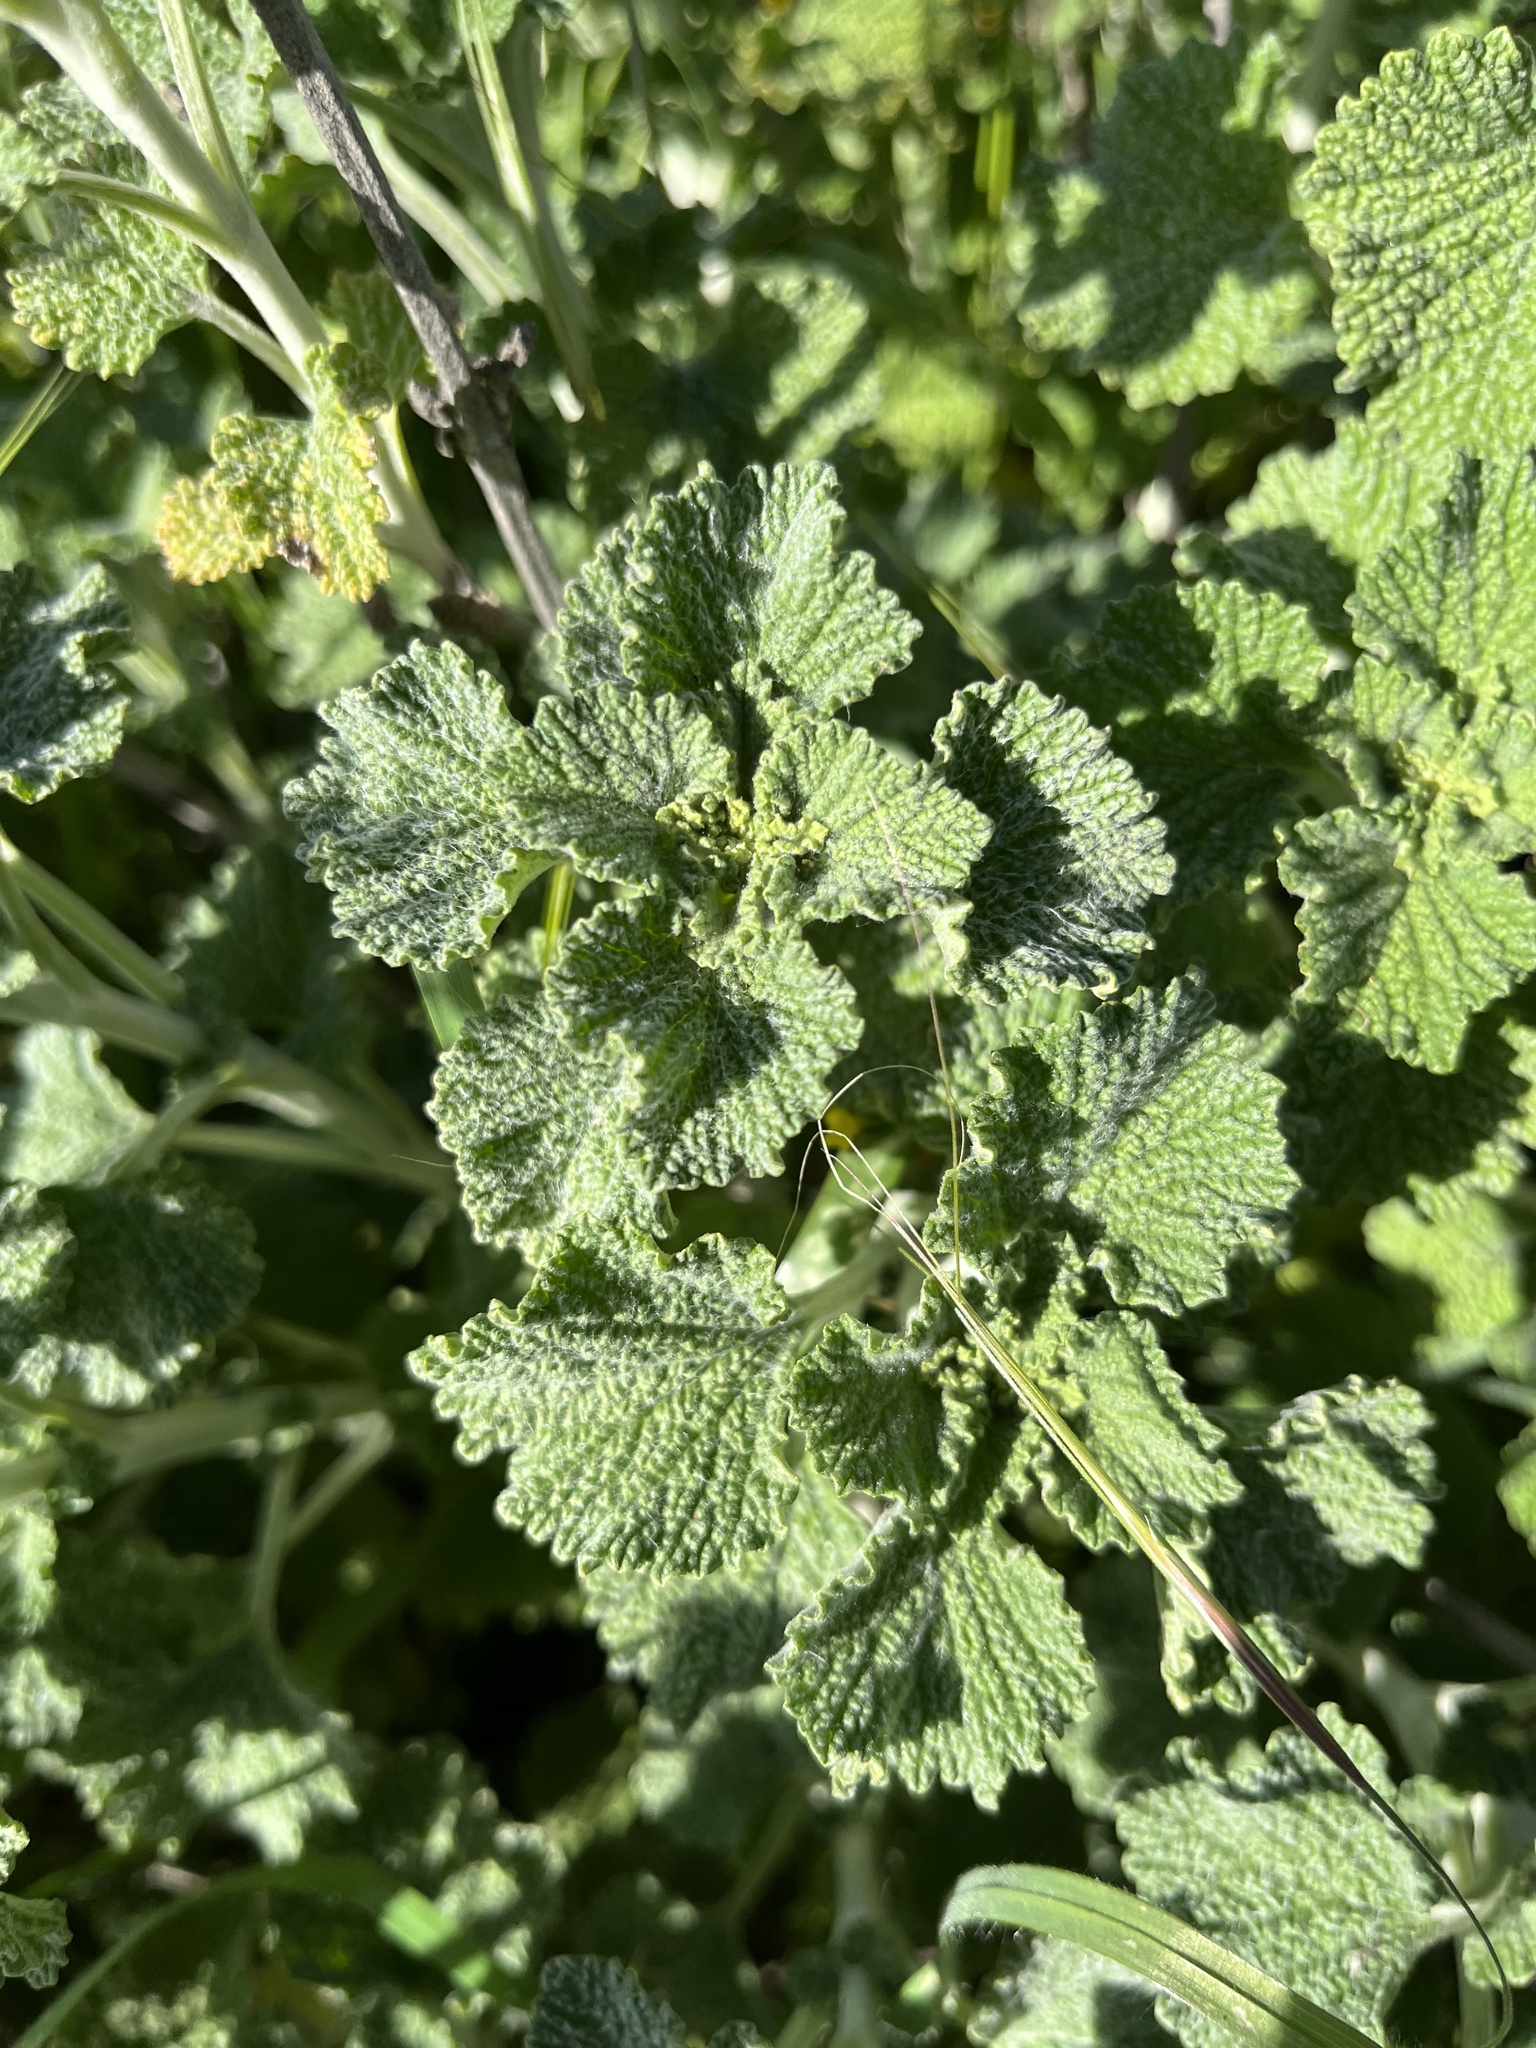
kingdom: Plantae
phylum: Tracheophyta
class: Magnoliopsida
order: Lamiales
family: Lamiaceae
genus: Marrubium
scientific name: Marrubium vulgare
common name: Horehound
